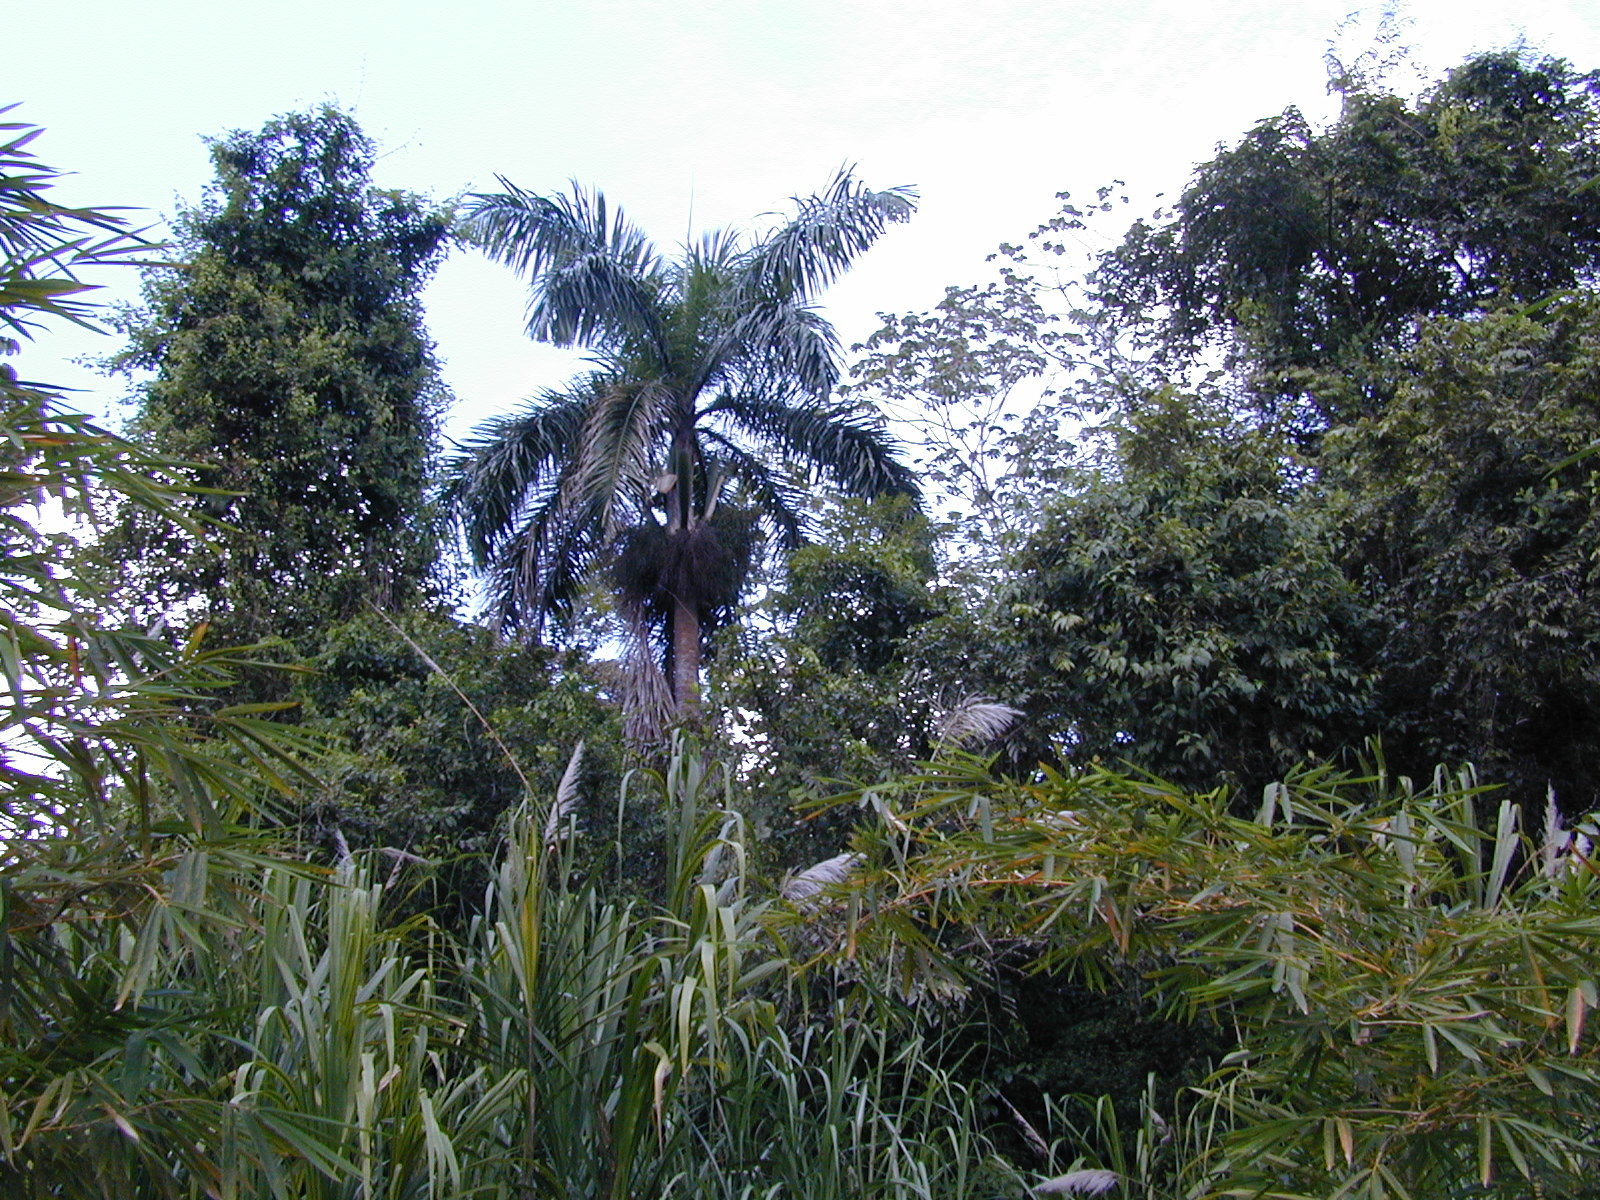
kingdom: Plantae
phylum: Tracheophyta
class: Liliopsida
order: Arecales
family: Arecaceae
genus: Roystonea
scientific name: Roystonea regia
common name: Florida royal palm
